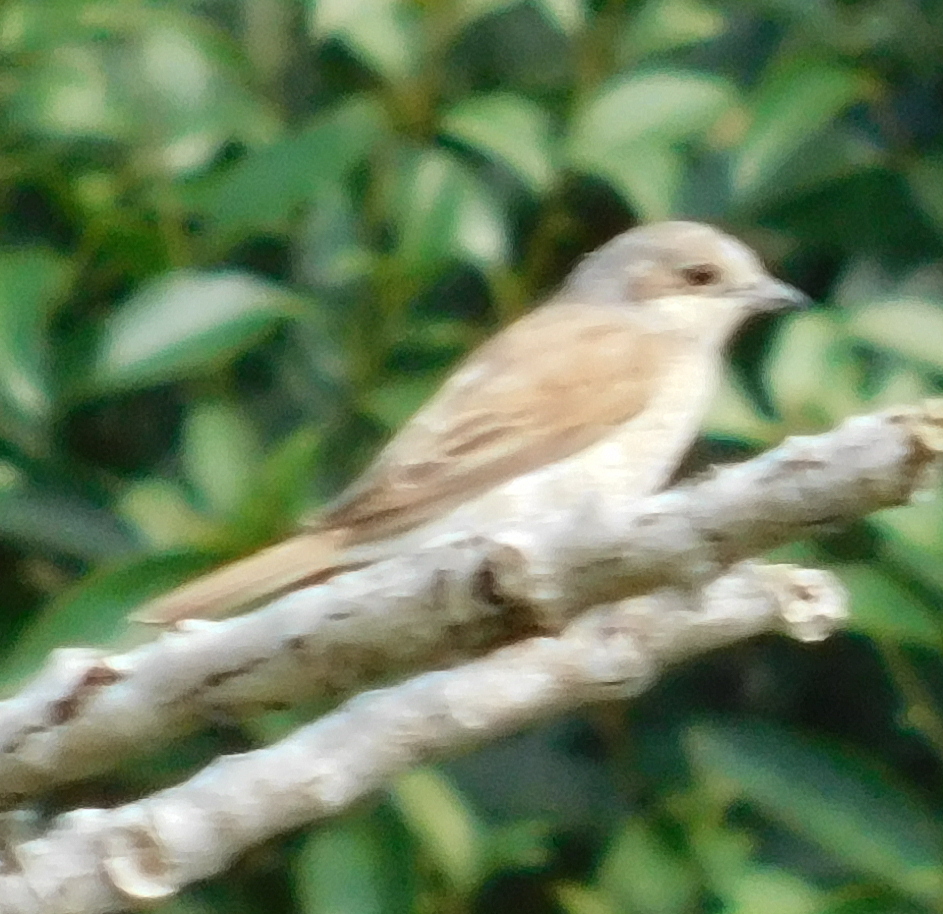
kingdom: Animalia
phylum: Chordata
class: Aves
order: Passeriformes
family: Laniidae
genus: Lanius
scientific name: Lanius collurio
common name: Red-backed shrike
